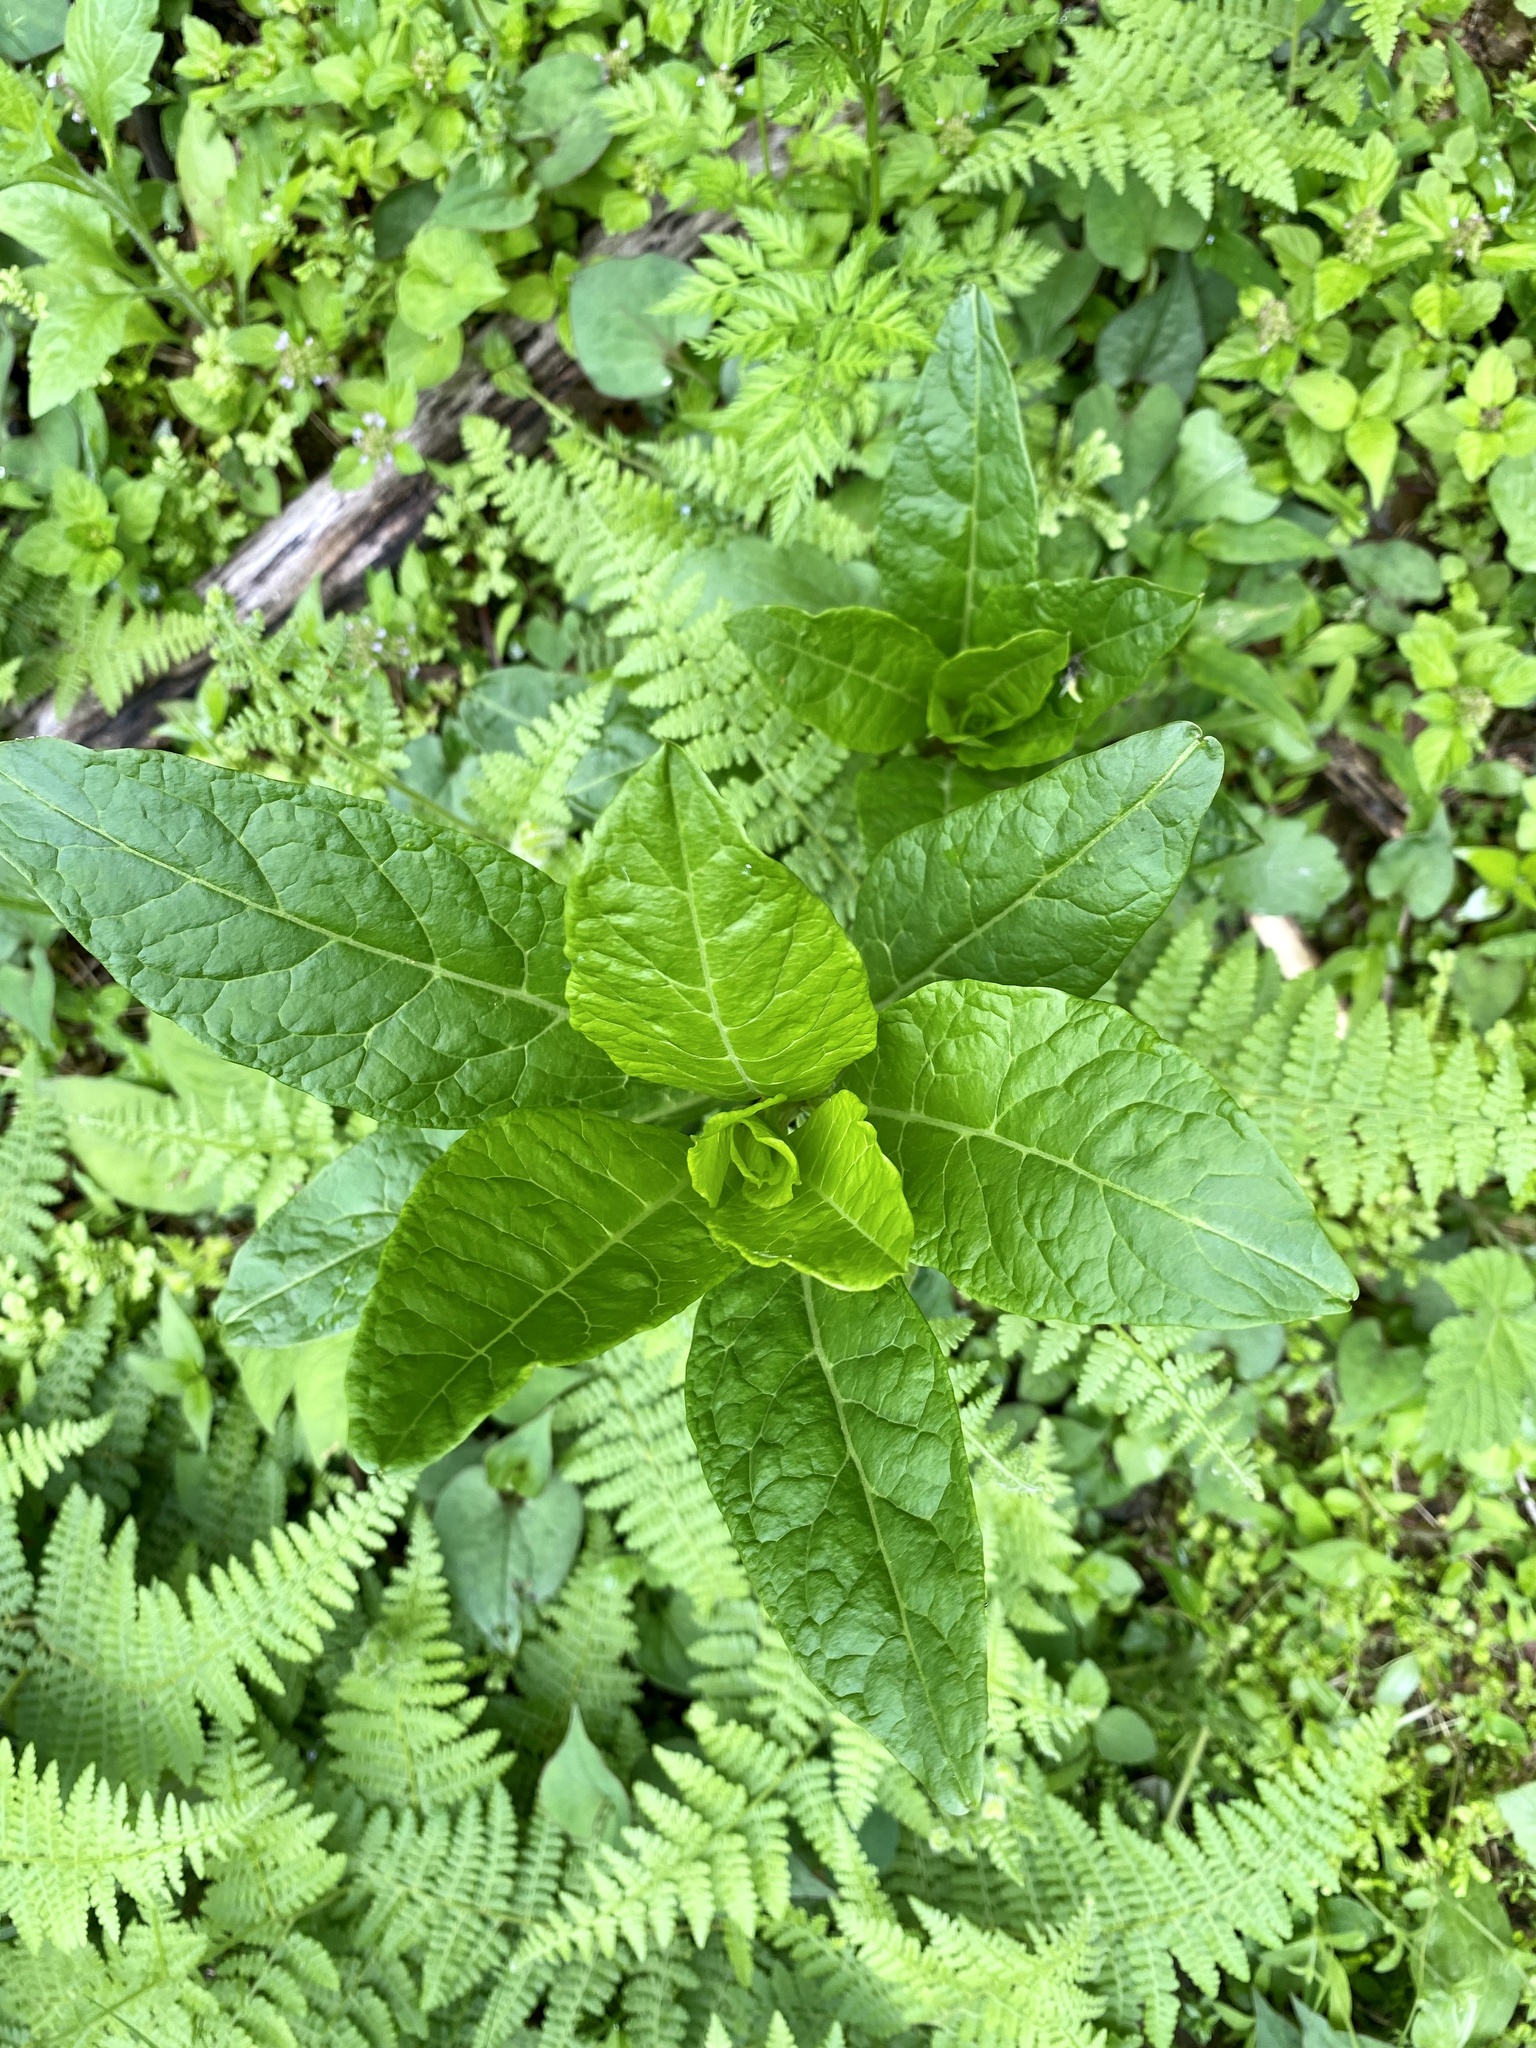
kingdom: Plantae
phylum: Tracheophyta
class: Magnoliopsida
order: Caryophyllales
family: Phytolaccaceae
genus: Phytolacca
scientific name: Phytolacca americana
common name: American pokeweed
